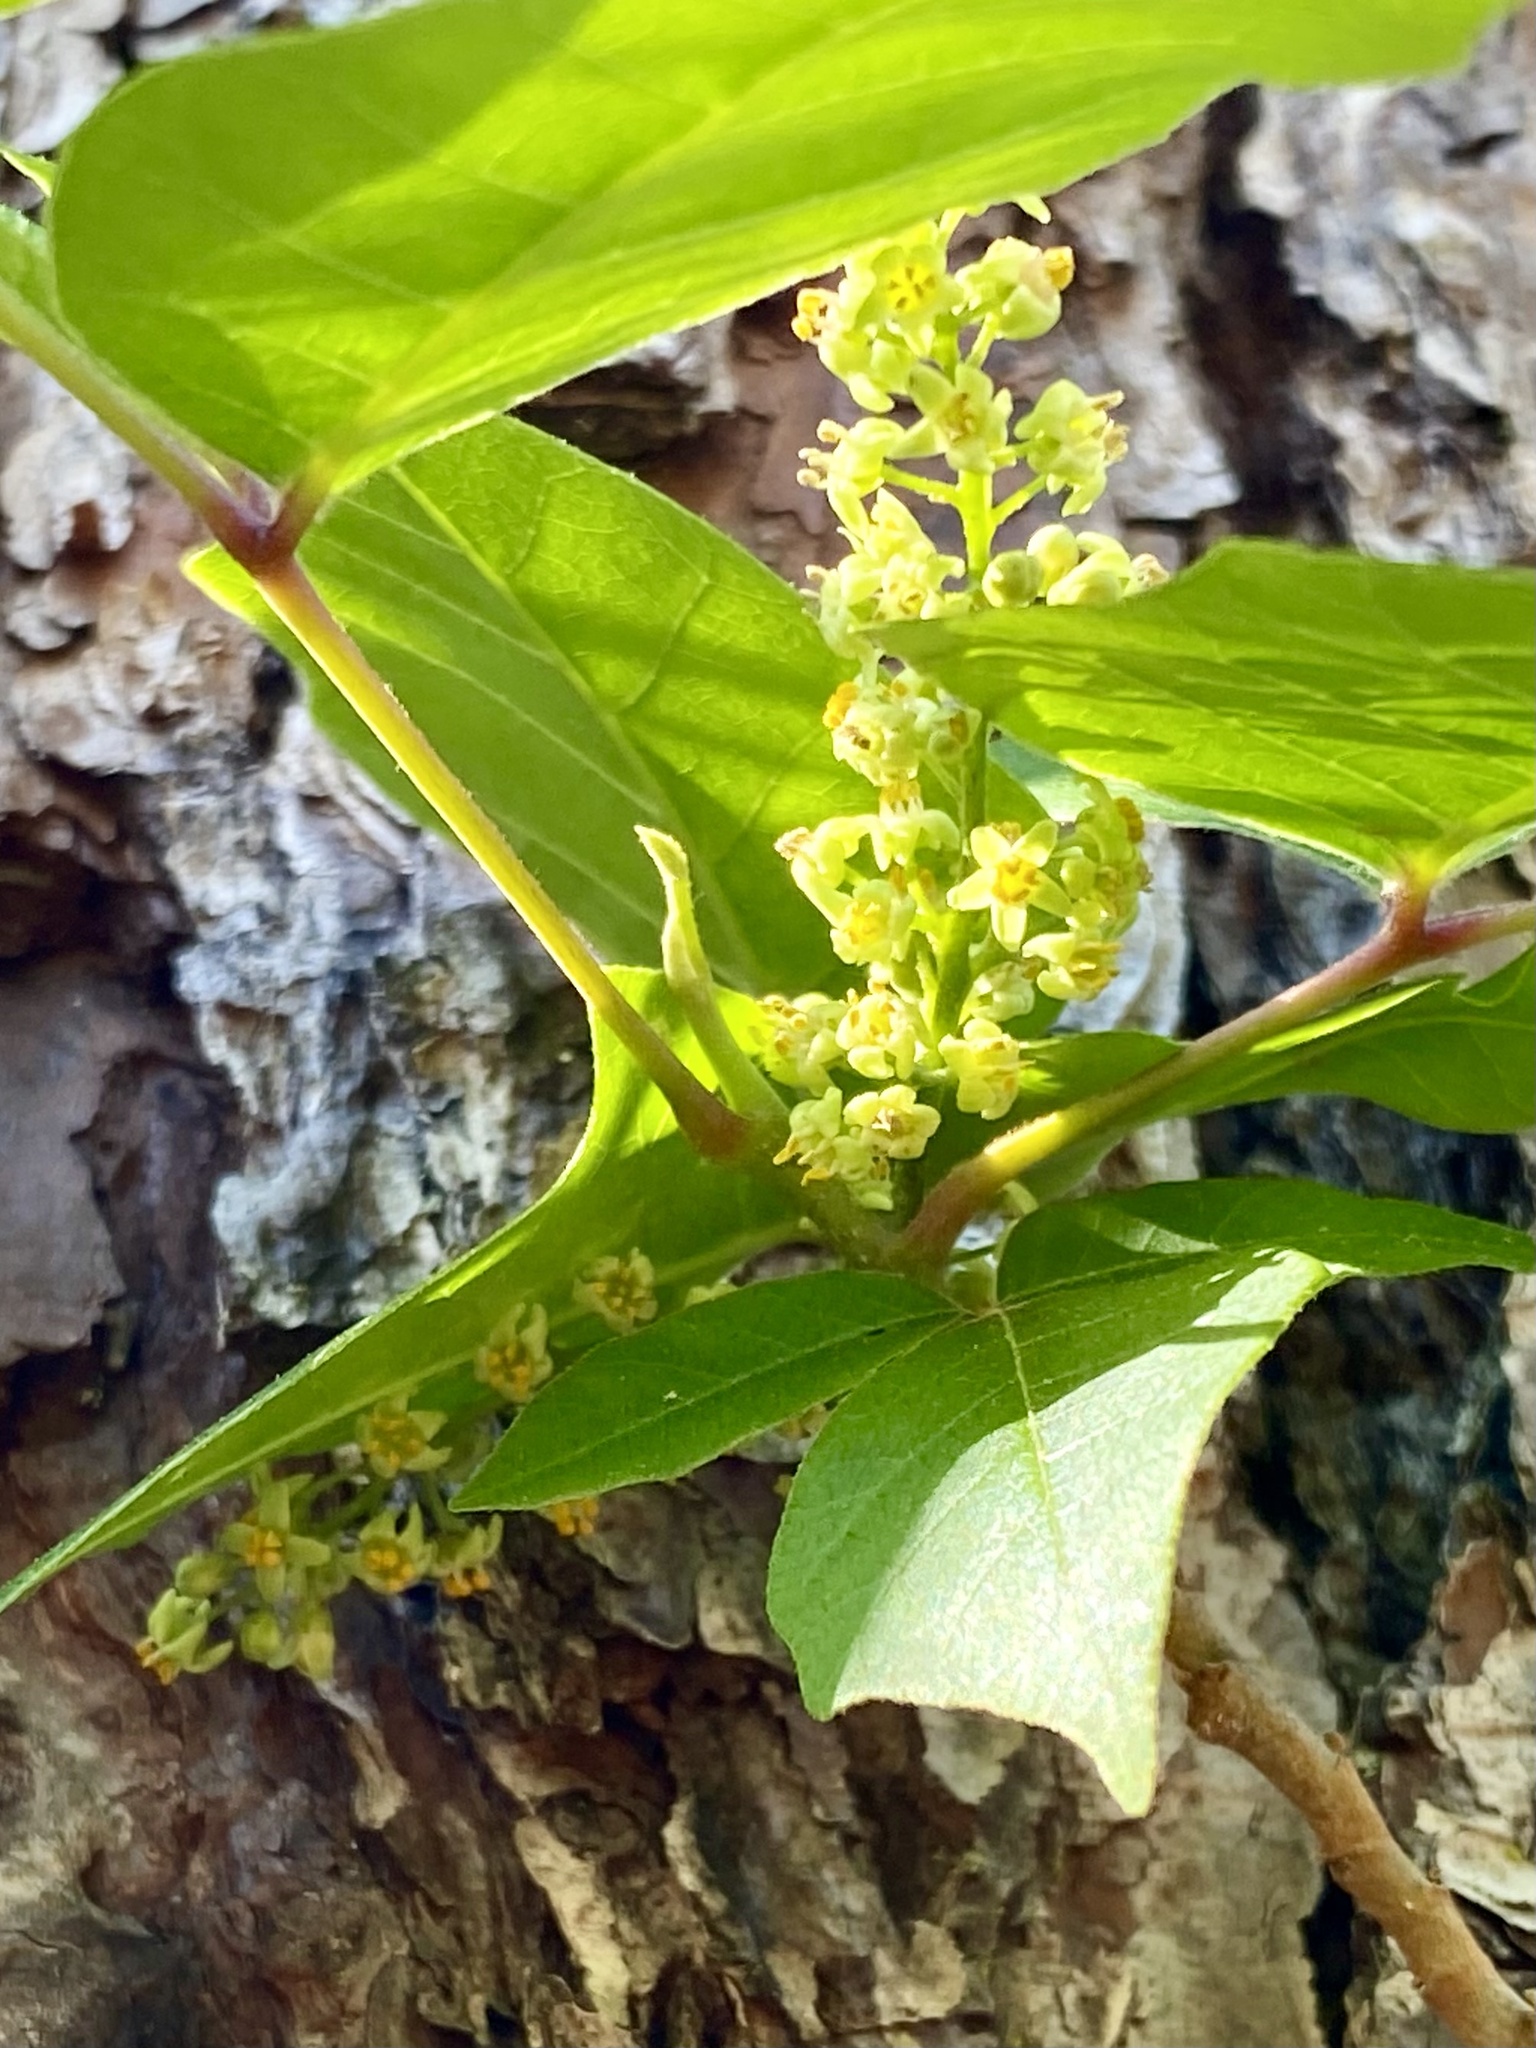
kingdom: Plantae
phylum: Tracheophyta
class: Magnoliopsida
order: Sapindales
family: Anacardiaceae
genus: Toxicodendron
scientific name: Toxicodendron radicans
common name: Poison ivy
